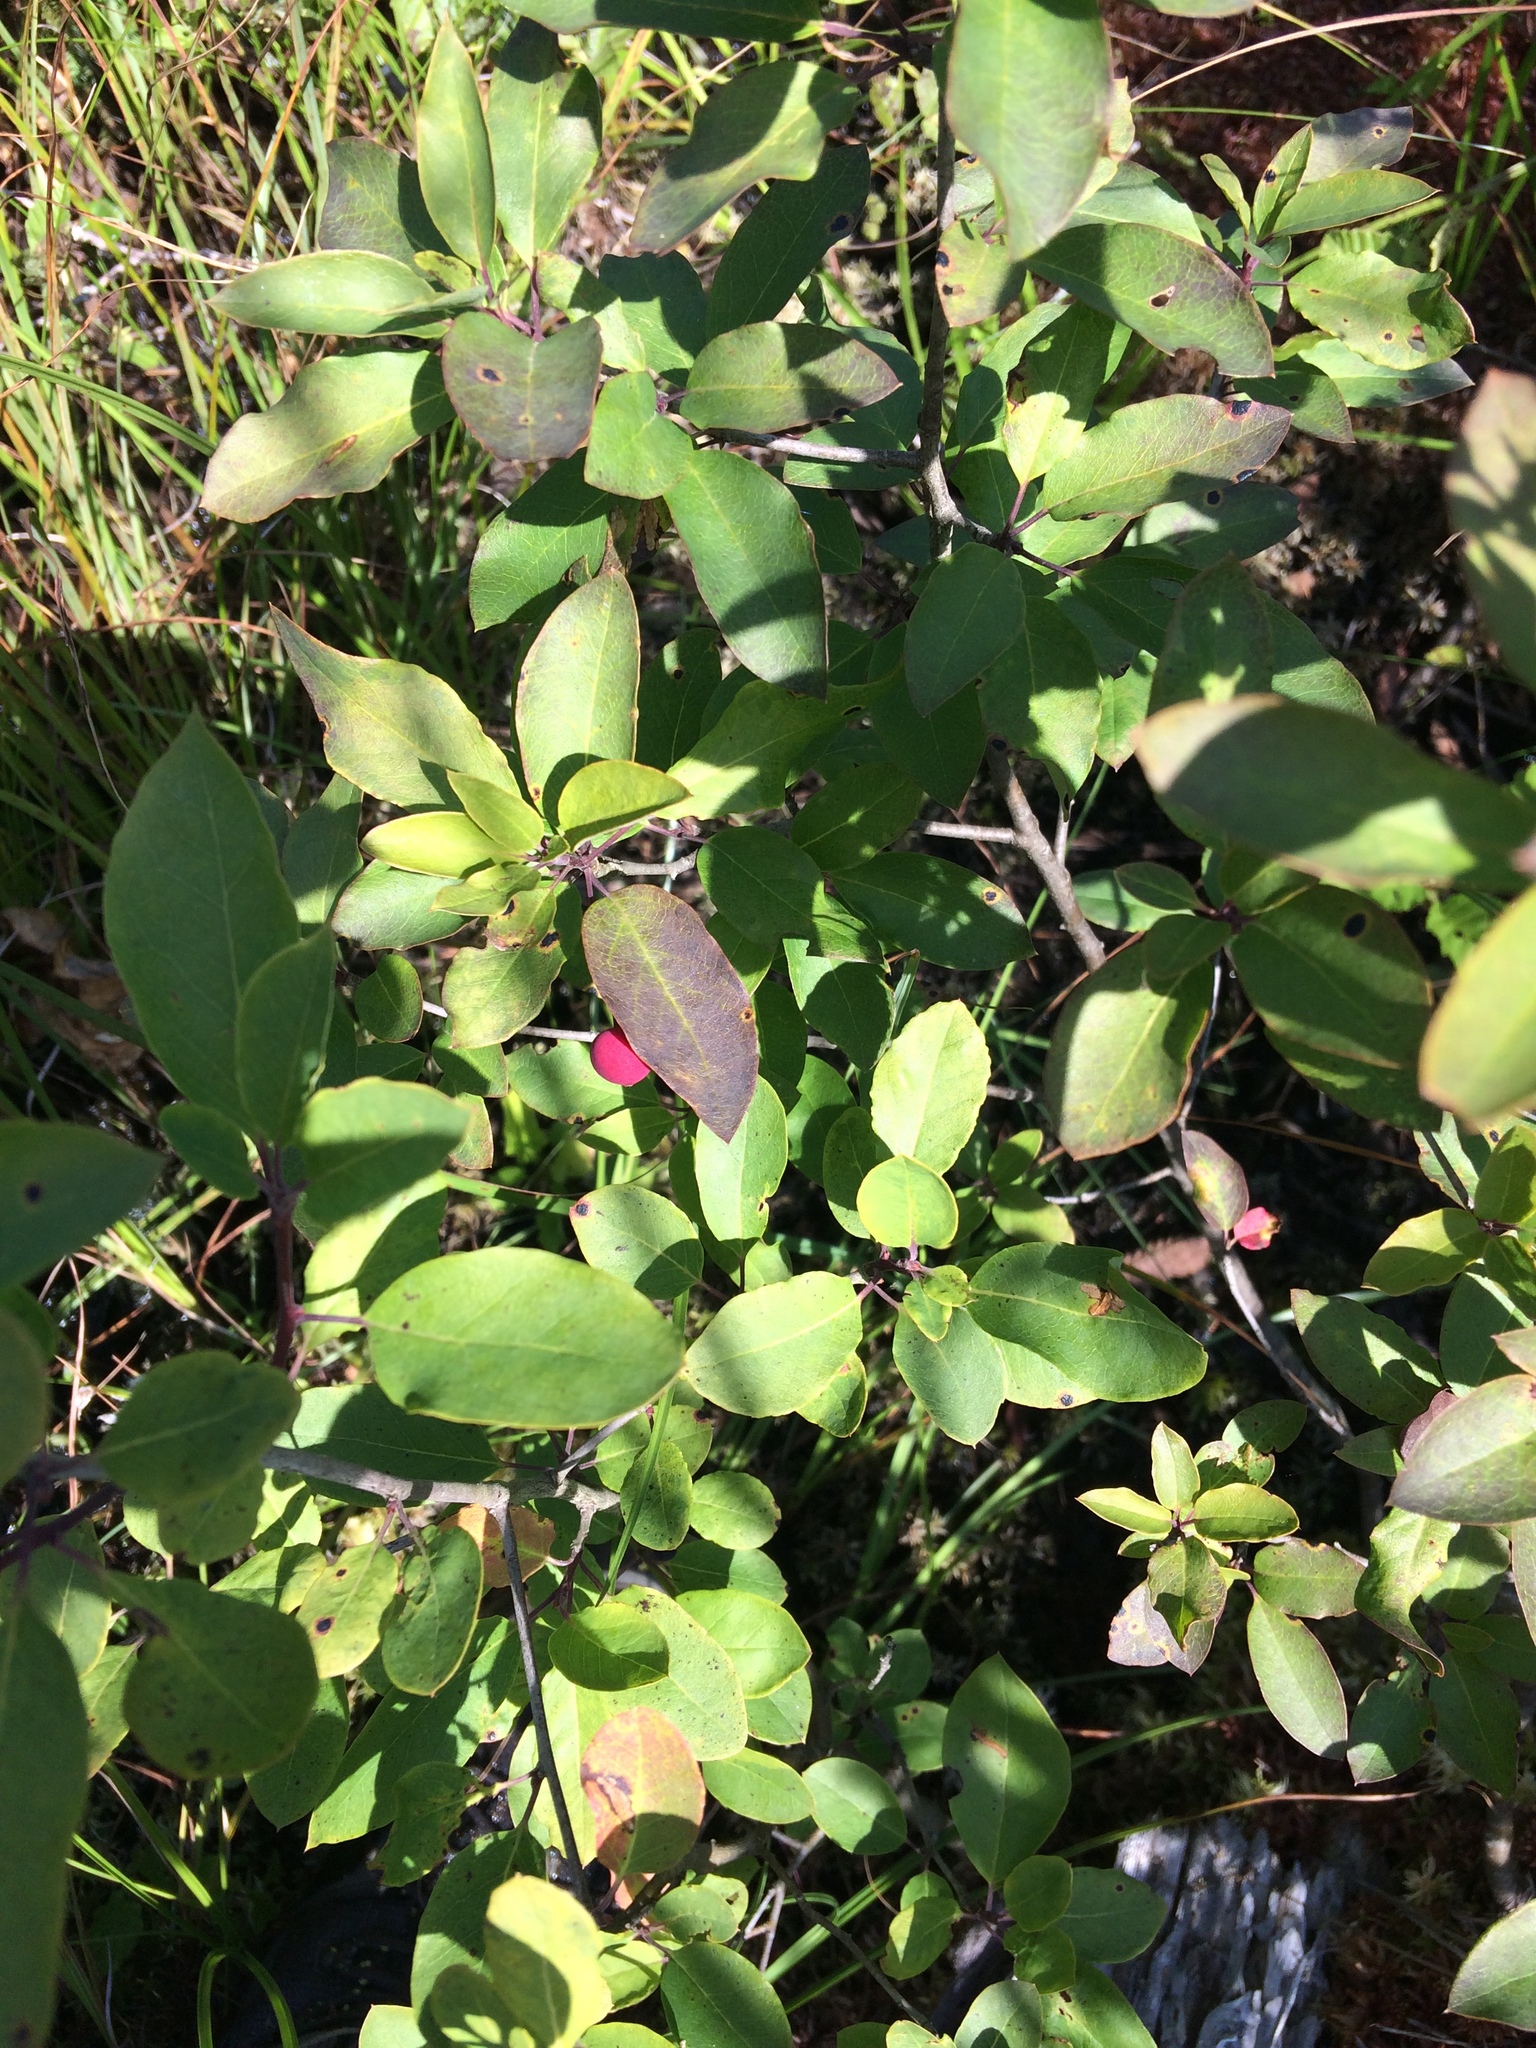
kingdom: Plantae
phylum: Tracheophyta
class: Magnoliopsida
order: Aquifoliales
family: Aquifoliaceae
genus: Ilex
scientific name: Ilex mucronata
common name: Catberry
